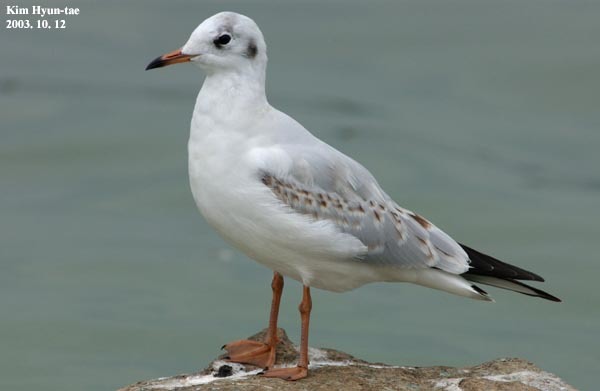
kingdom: Animalia
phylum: Chordata
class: Aves
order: Charadriiformes
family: Laridae
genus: Chroicocephalus
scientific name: Chroicocephalus ridibundus
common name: Black-headed gull
